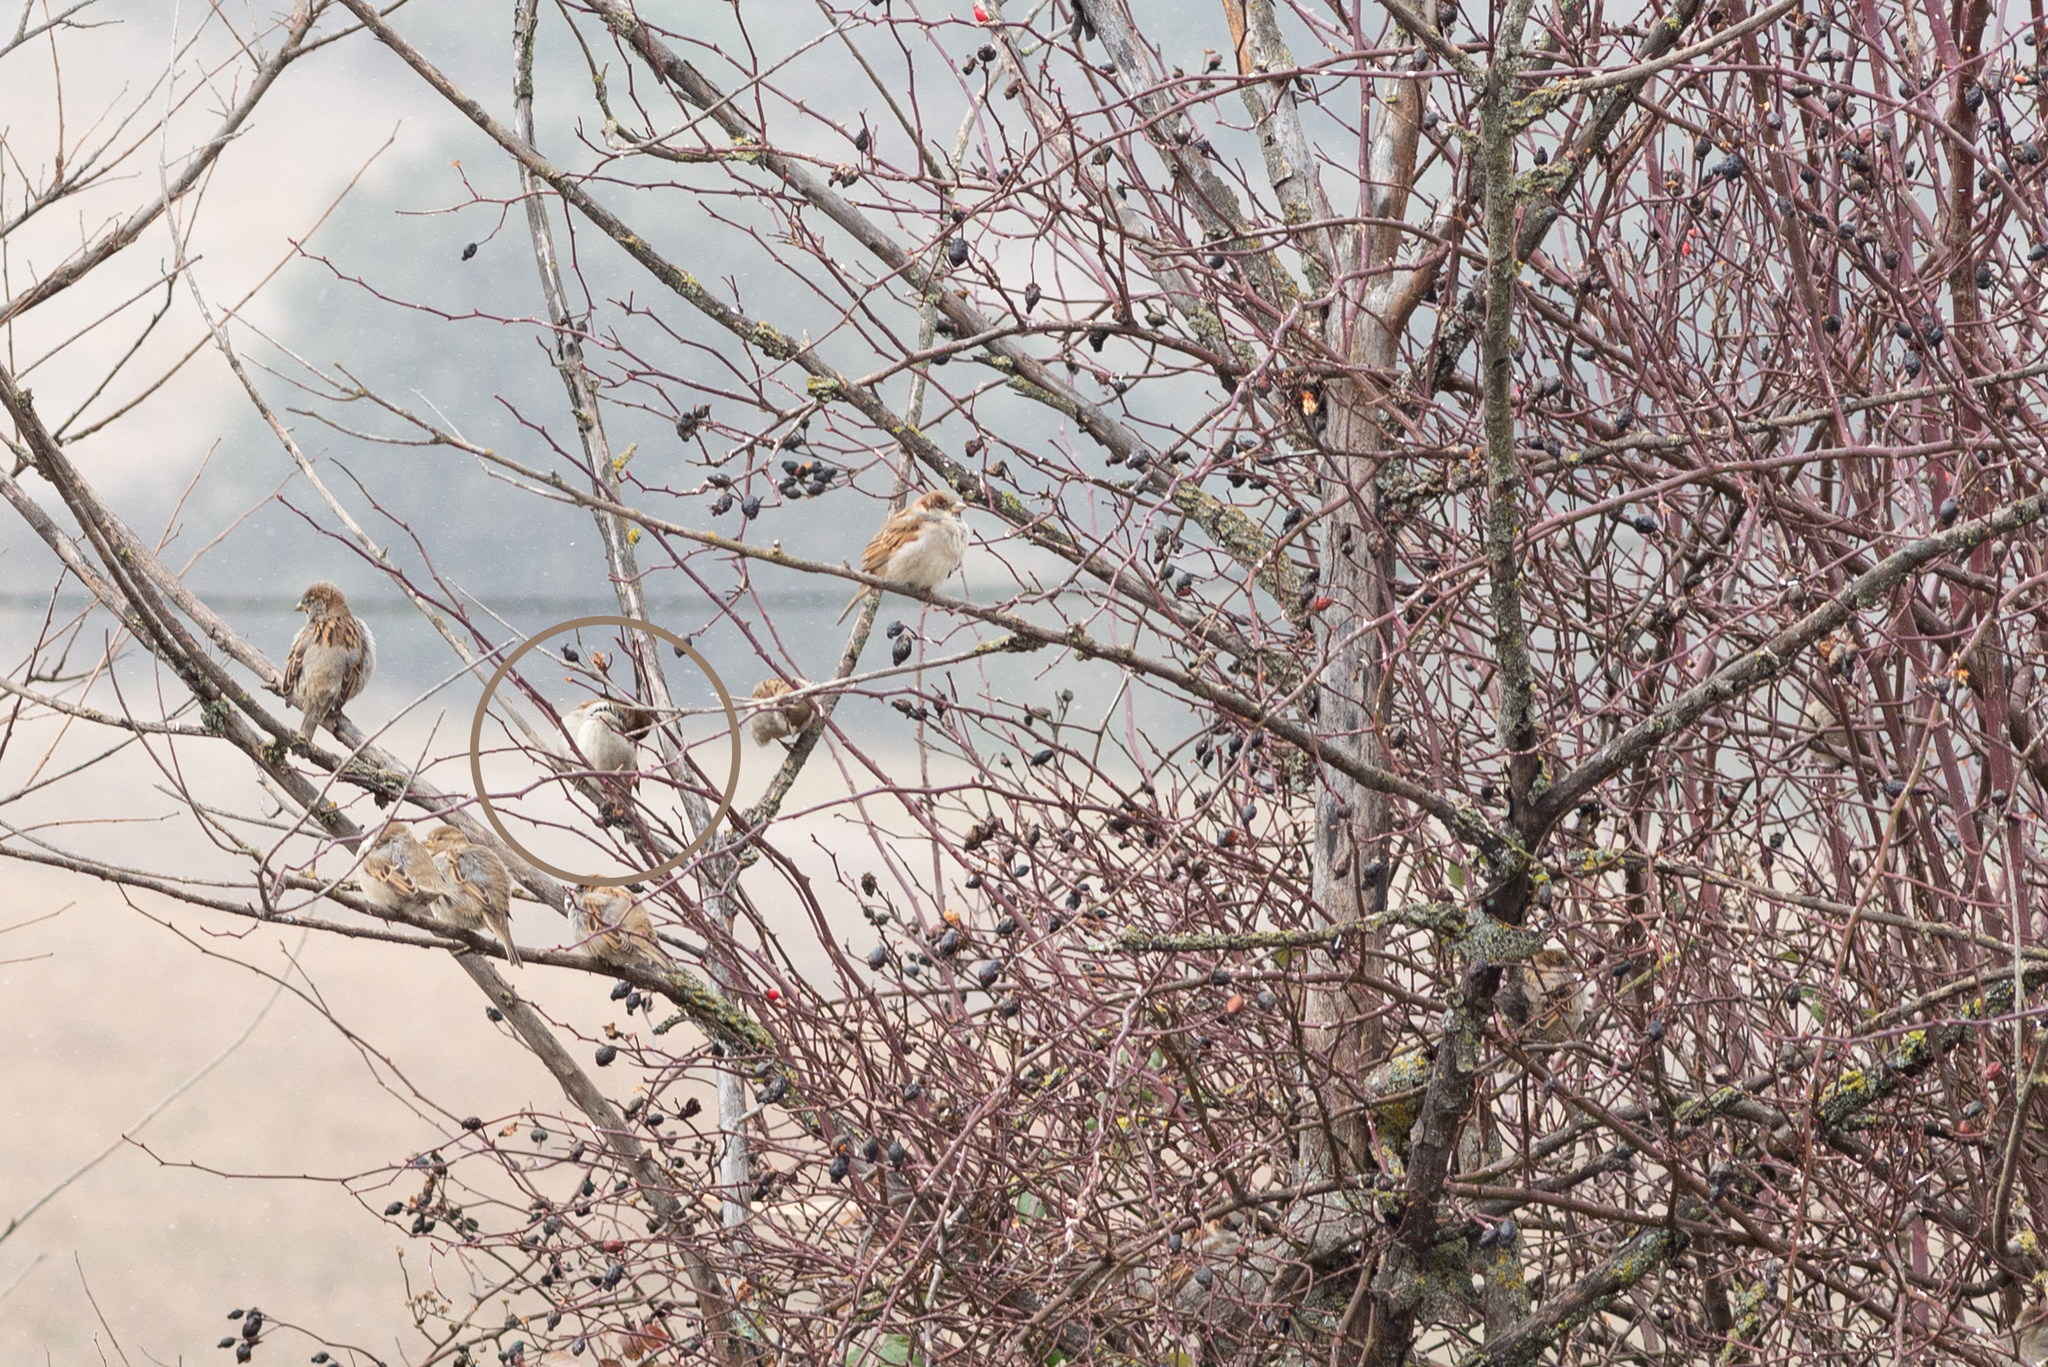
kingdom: Animalia
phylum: Chordata
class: Aves
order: Passeriformes
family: Passeridae
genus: Passer
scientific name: Passer domesticus
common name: House sparrow
